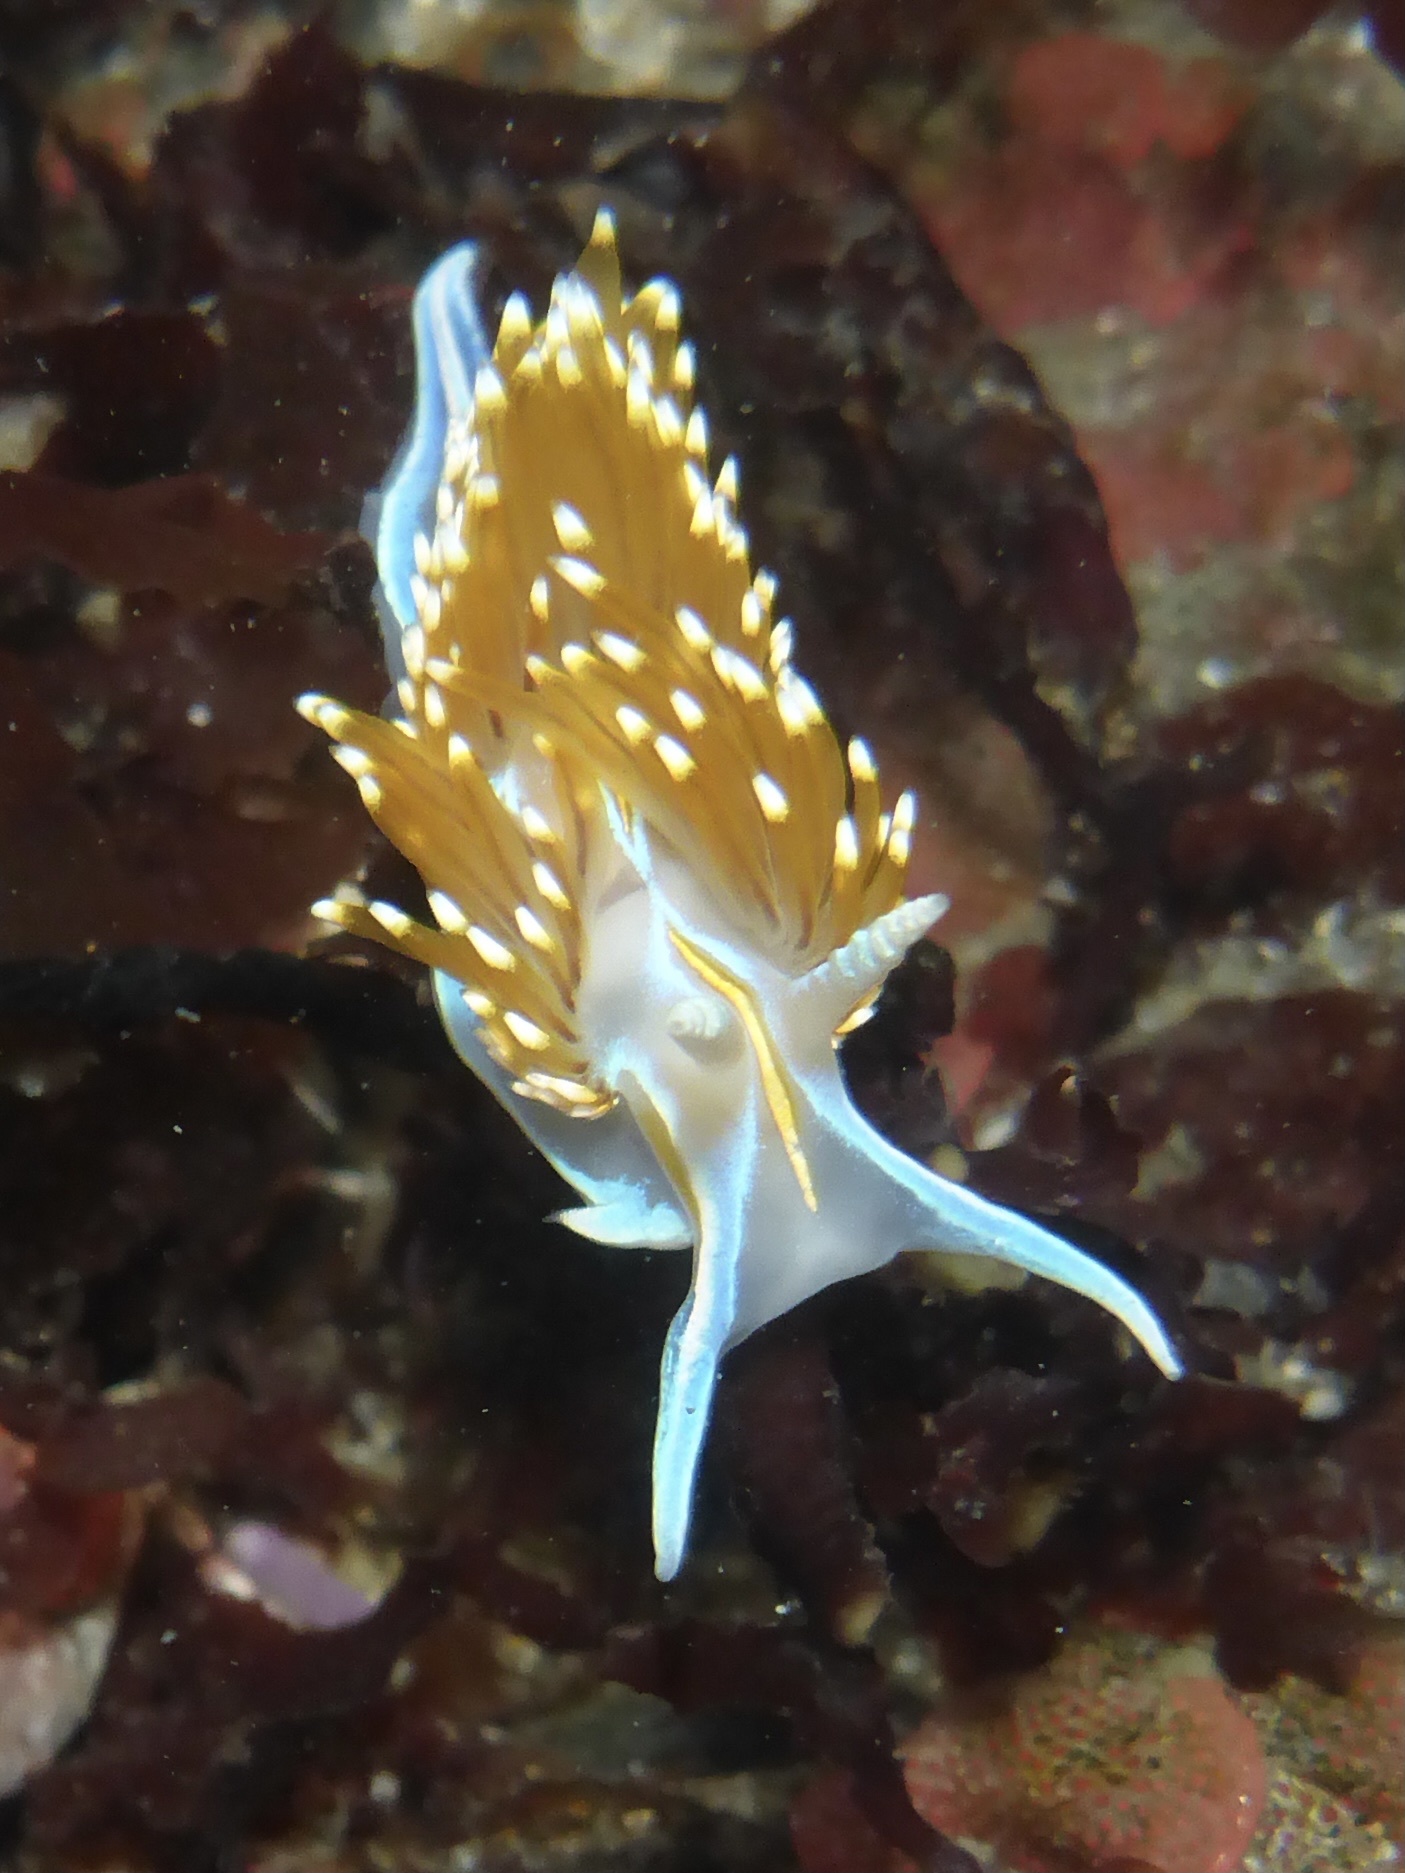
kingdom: Animalia
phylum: Mollusca
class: Gastropoda
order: Nudibranchia
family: Myrrhinidae
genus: Hermissenda
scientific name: Hermissenda opalescens
